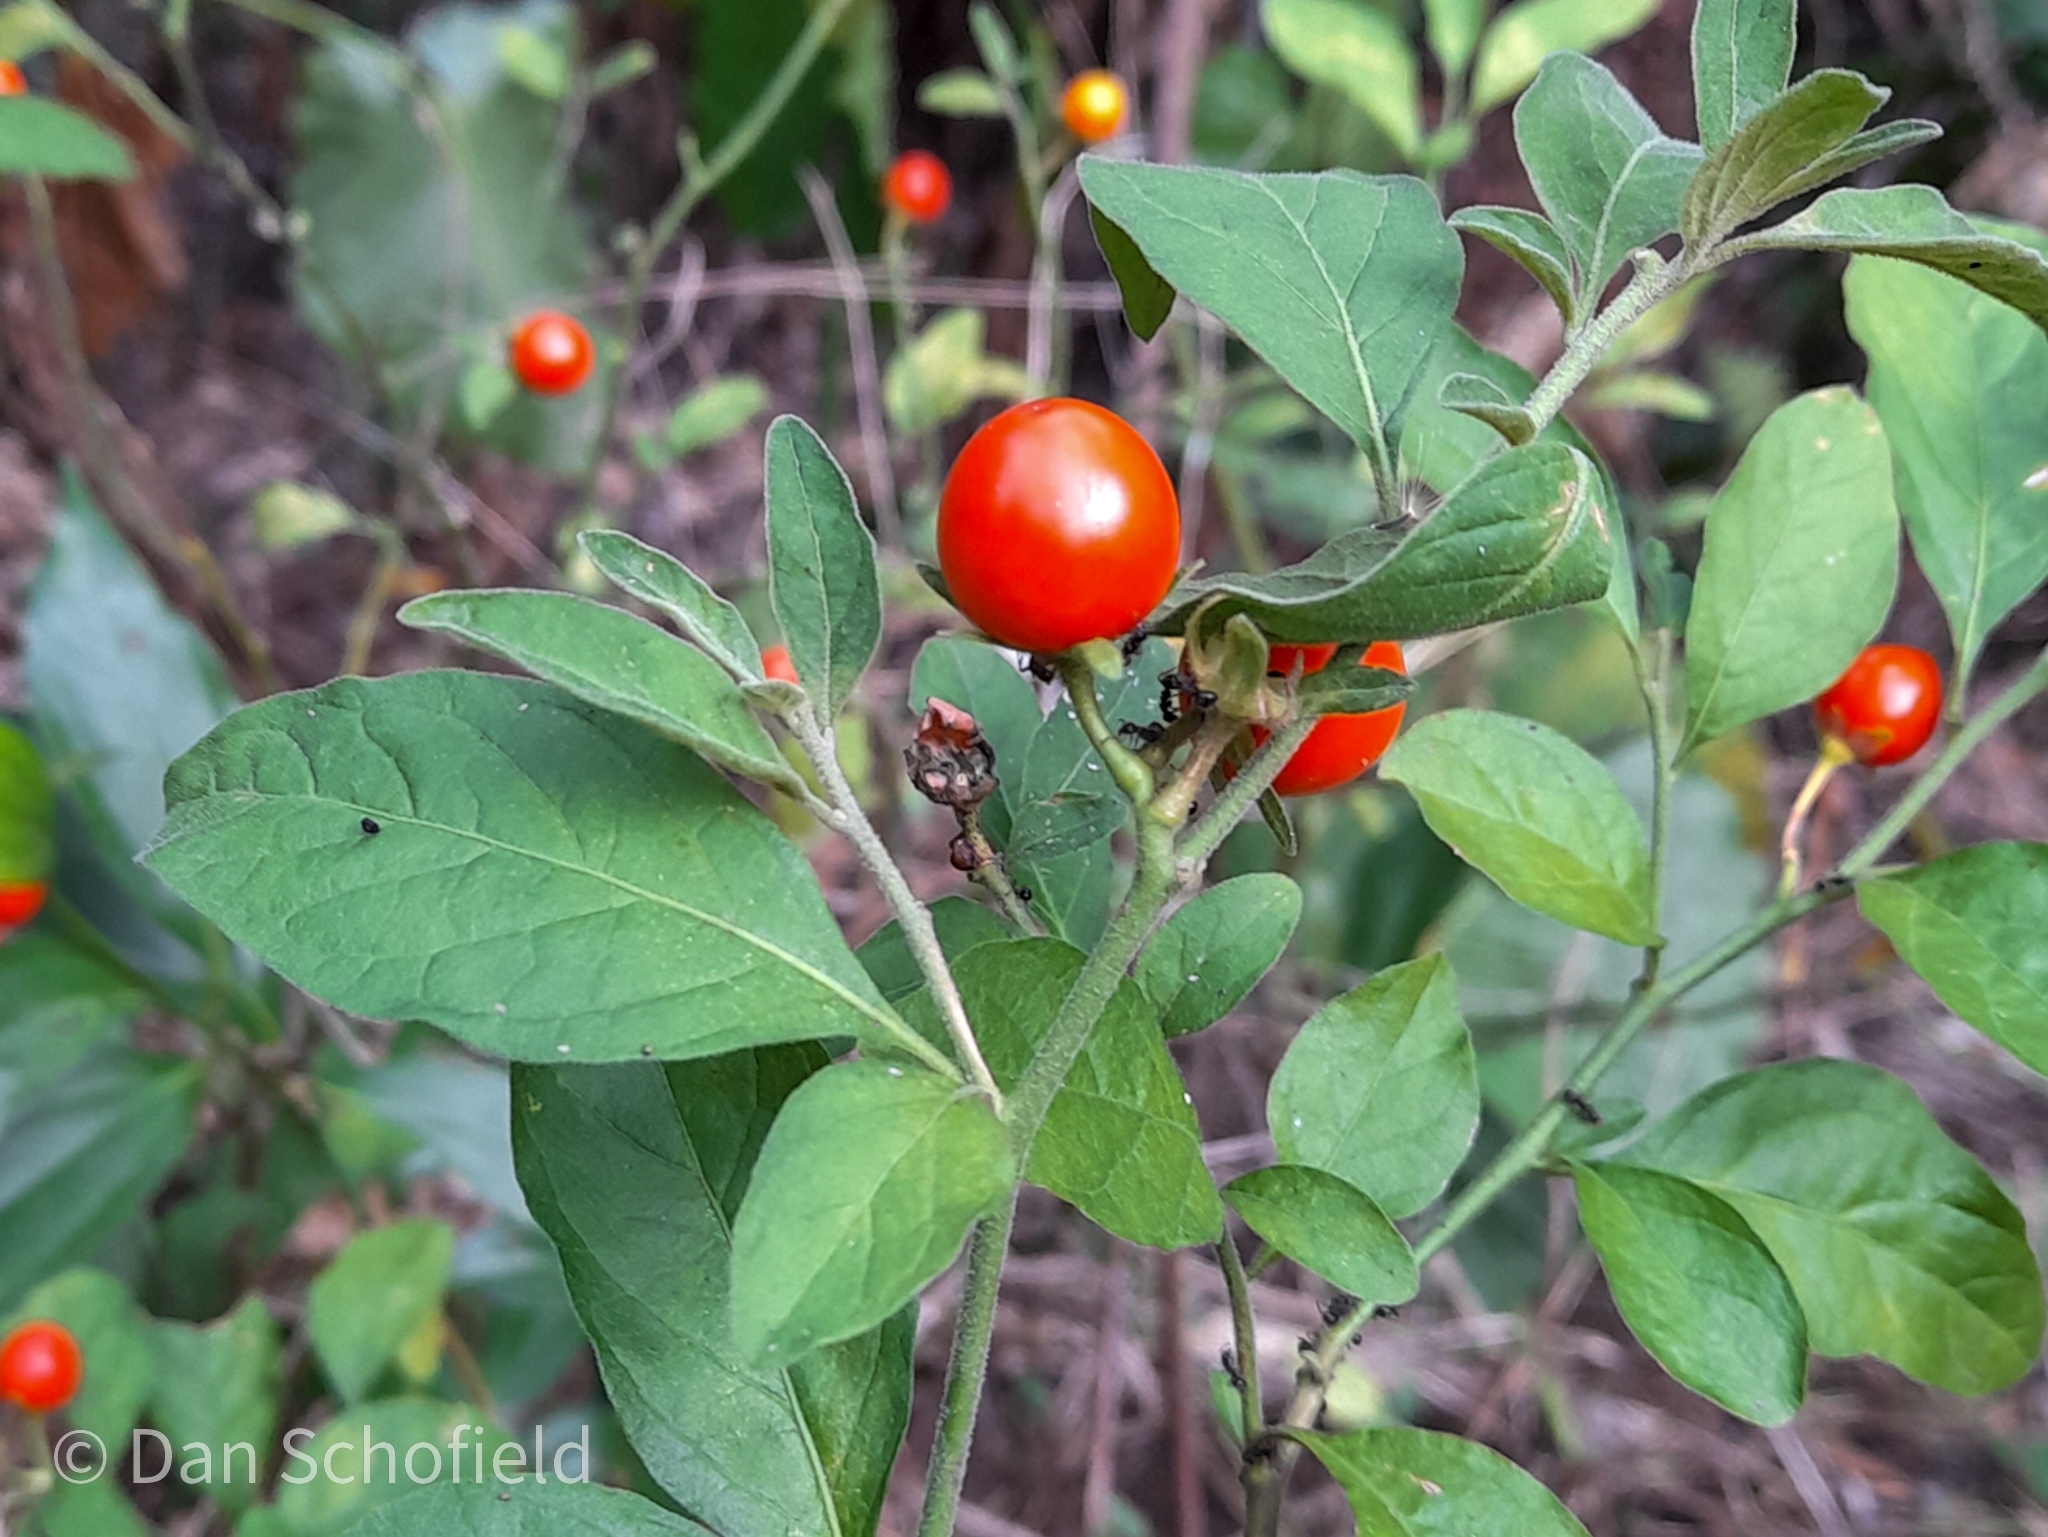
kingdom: Plantae
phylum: Tracheophyta
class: Magnoliopsida
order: Solanales
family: Solanaceae
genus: Solanum
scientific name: Solanum pseudocapsicum
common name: Jerusalem cherry
